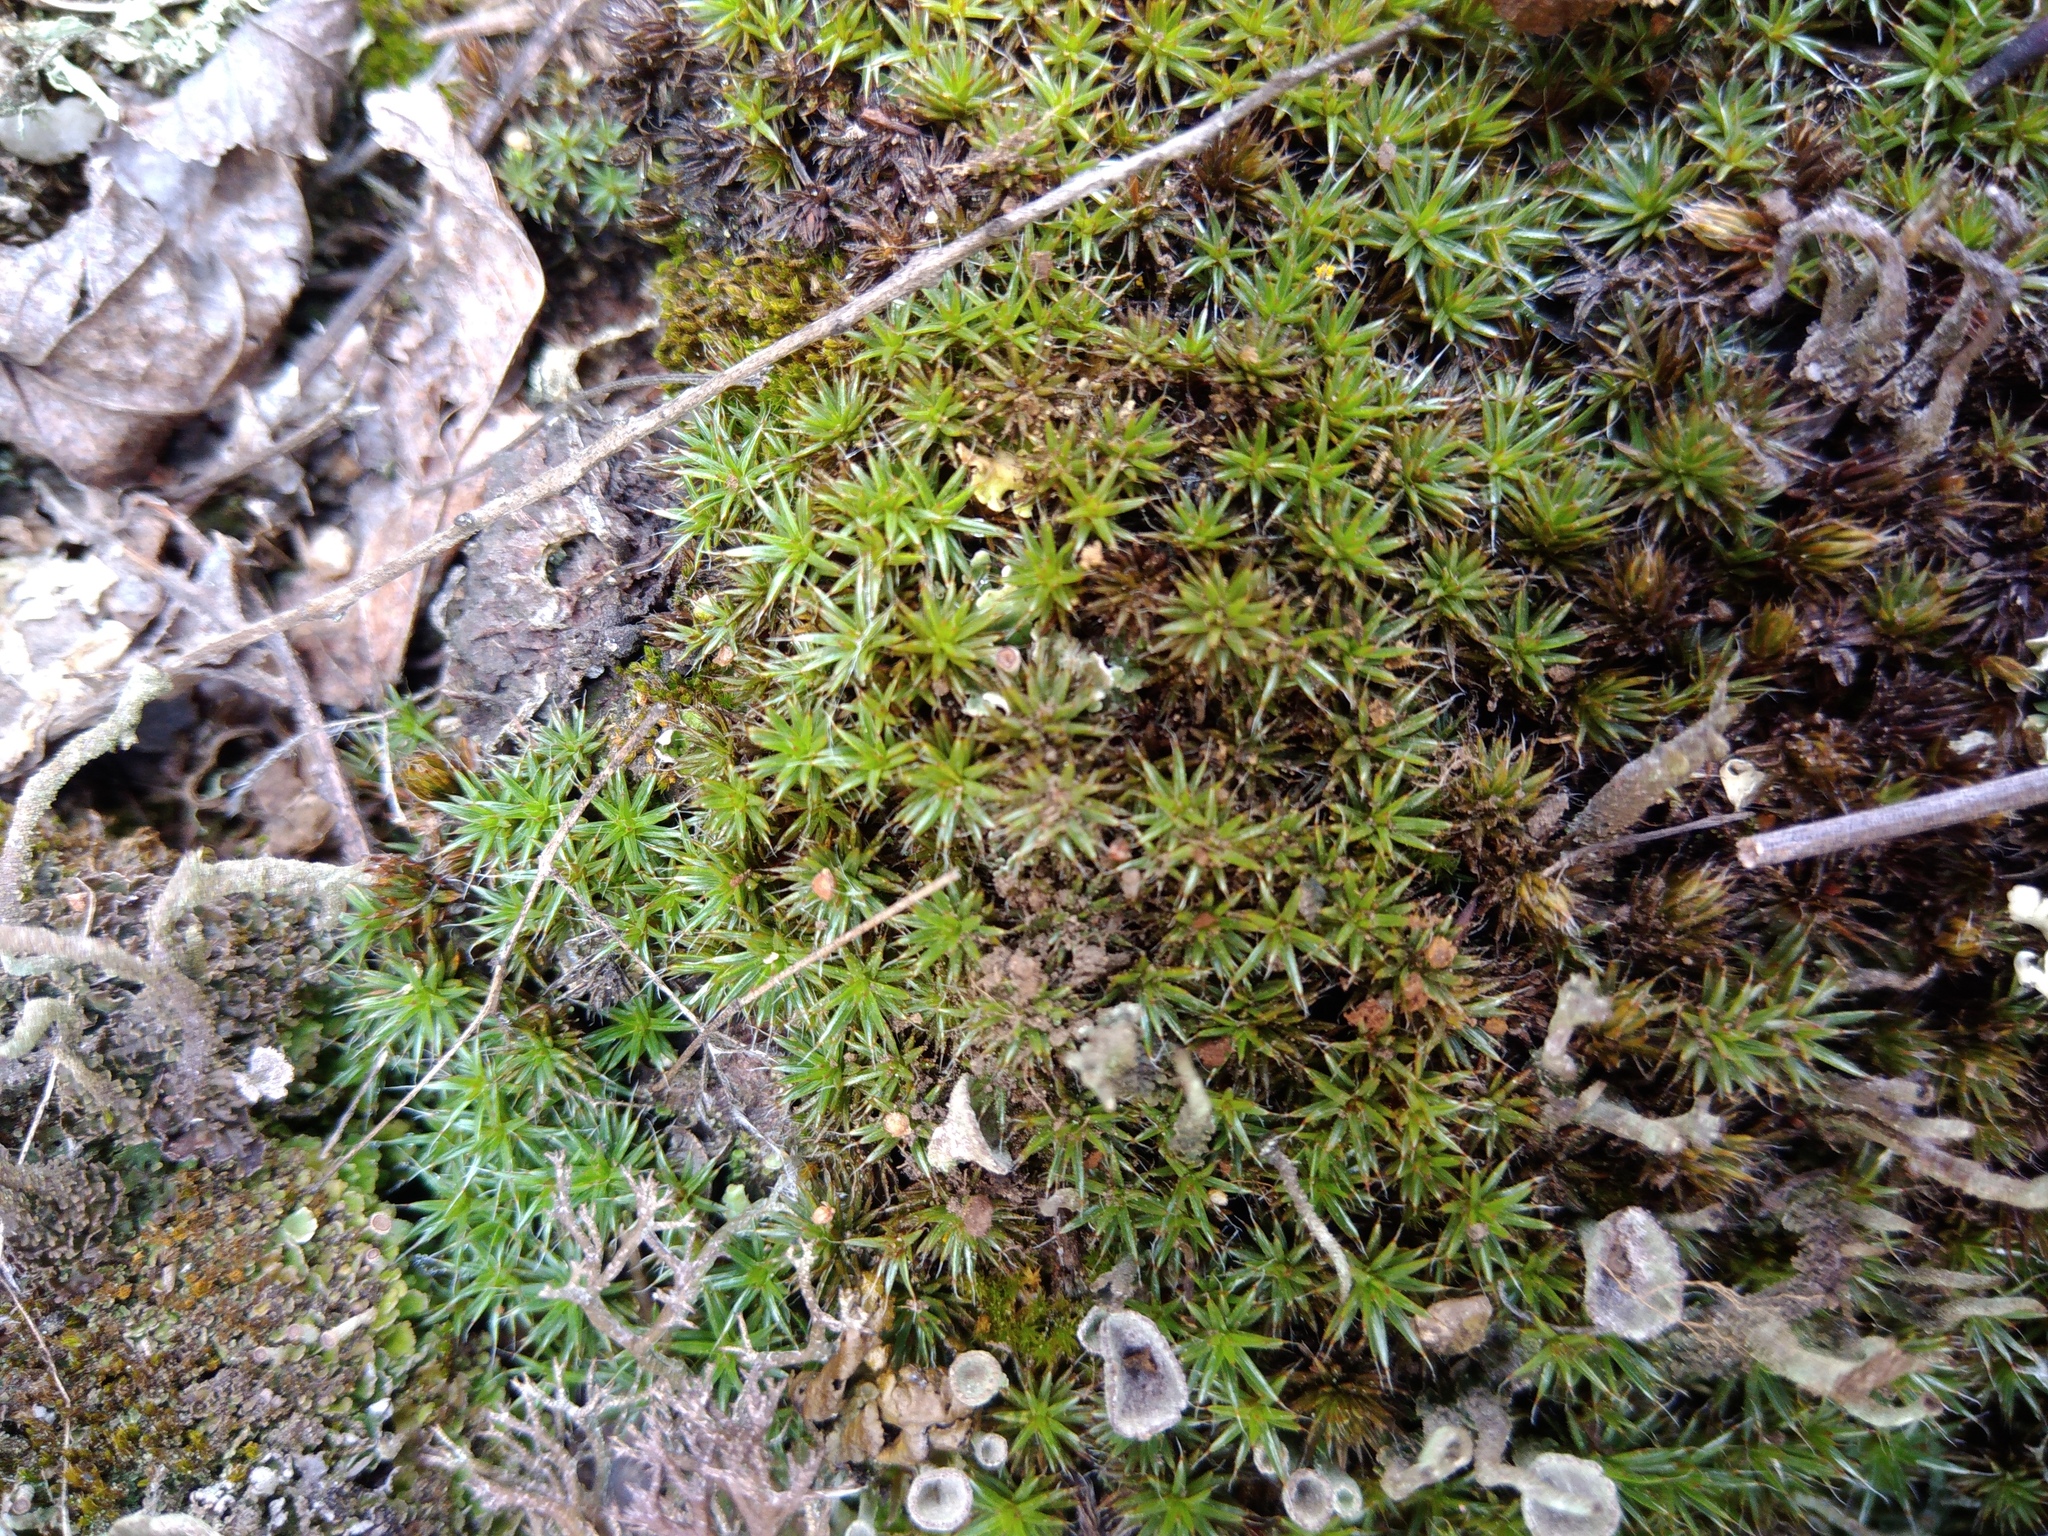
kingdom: Plantae
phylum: Bryophyta
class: Polytrichopsida
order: Polytrichales
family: Polytrichaceae
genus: Polytrichum
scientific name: Polytrichum piliferum
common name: Bristly haircap
